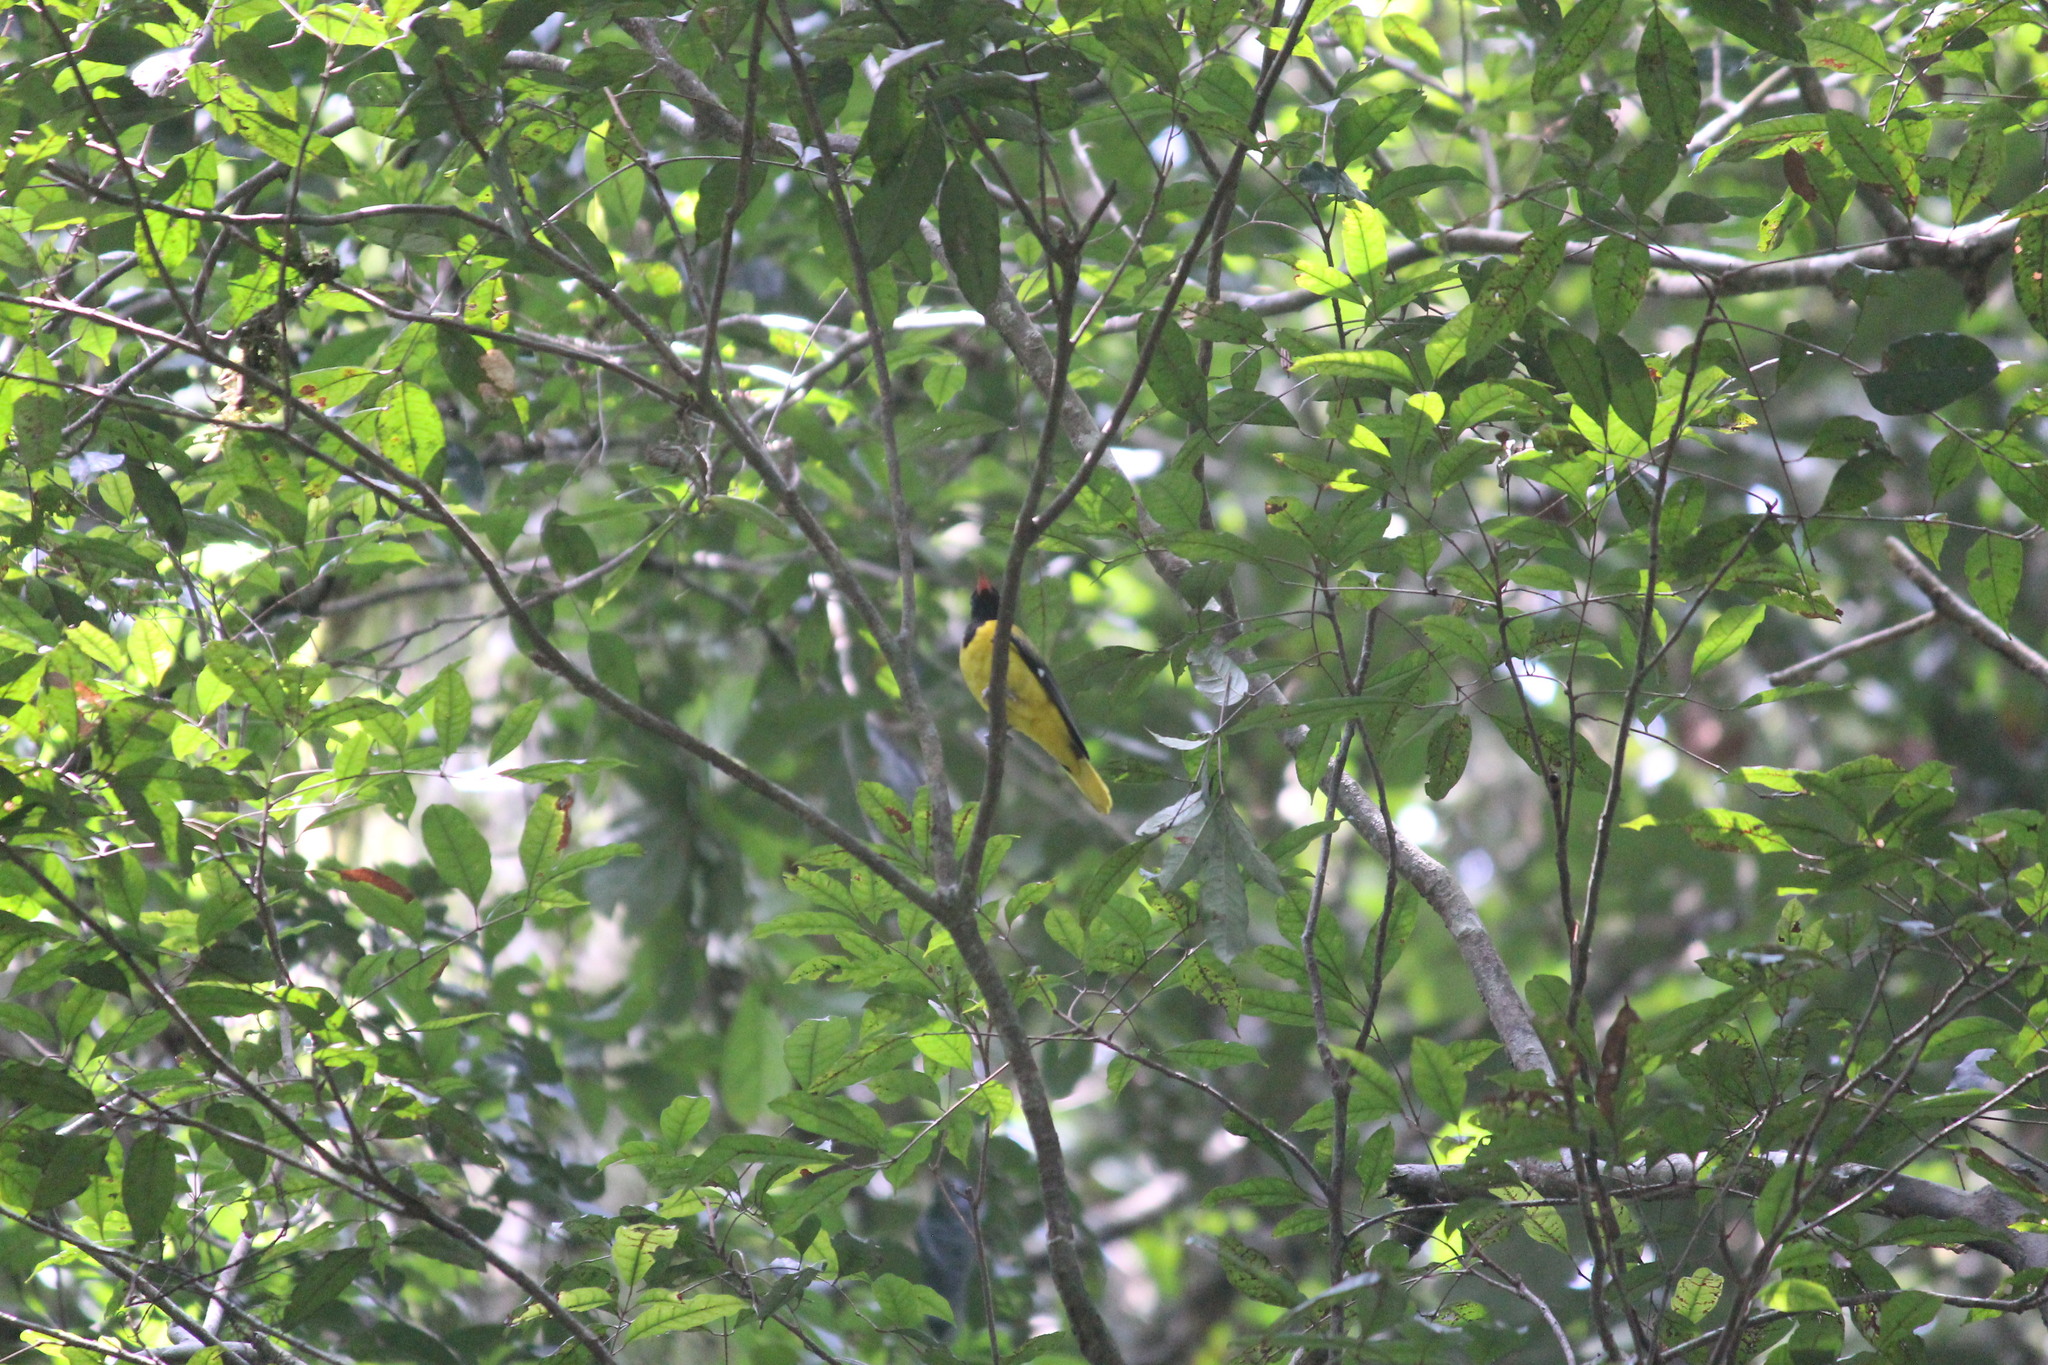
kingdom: Animalia
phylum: Chordata
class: Aves
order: Passeriformes
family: Oriolidae
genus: Oriolus
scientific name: Oriolus brachyrynchus
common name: Western oriole
